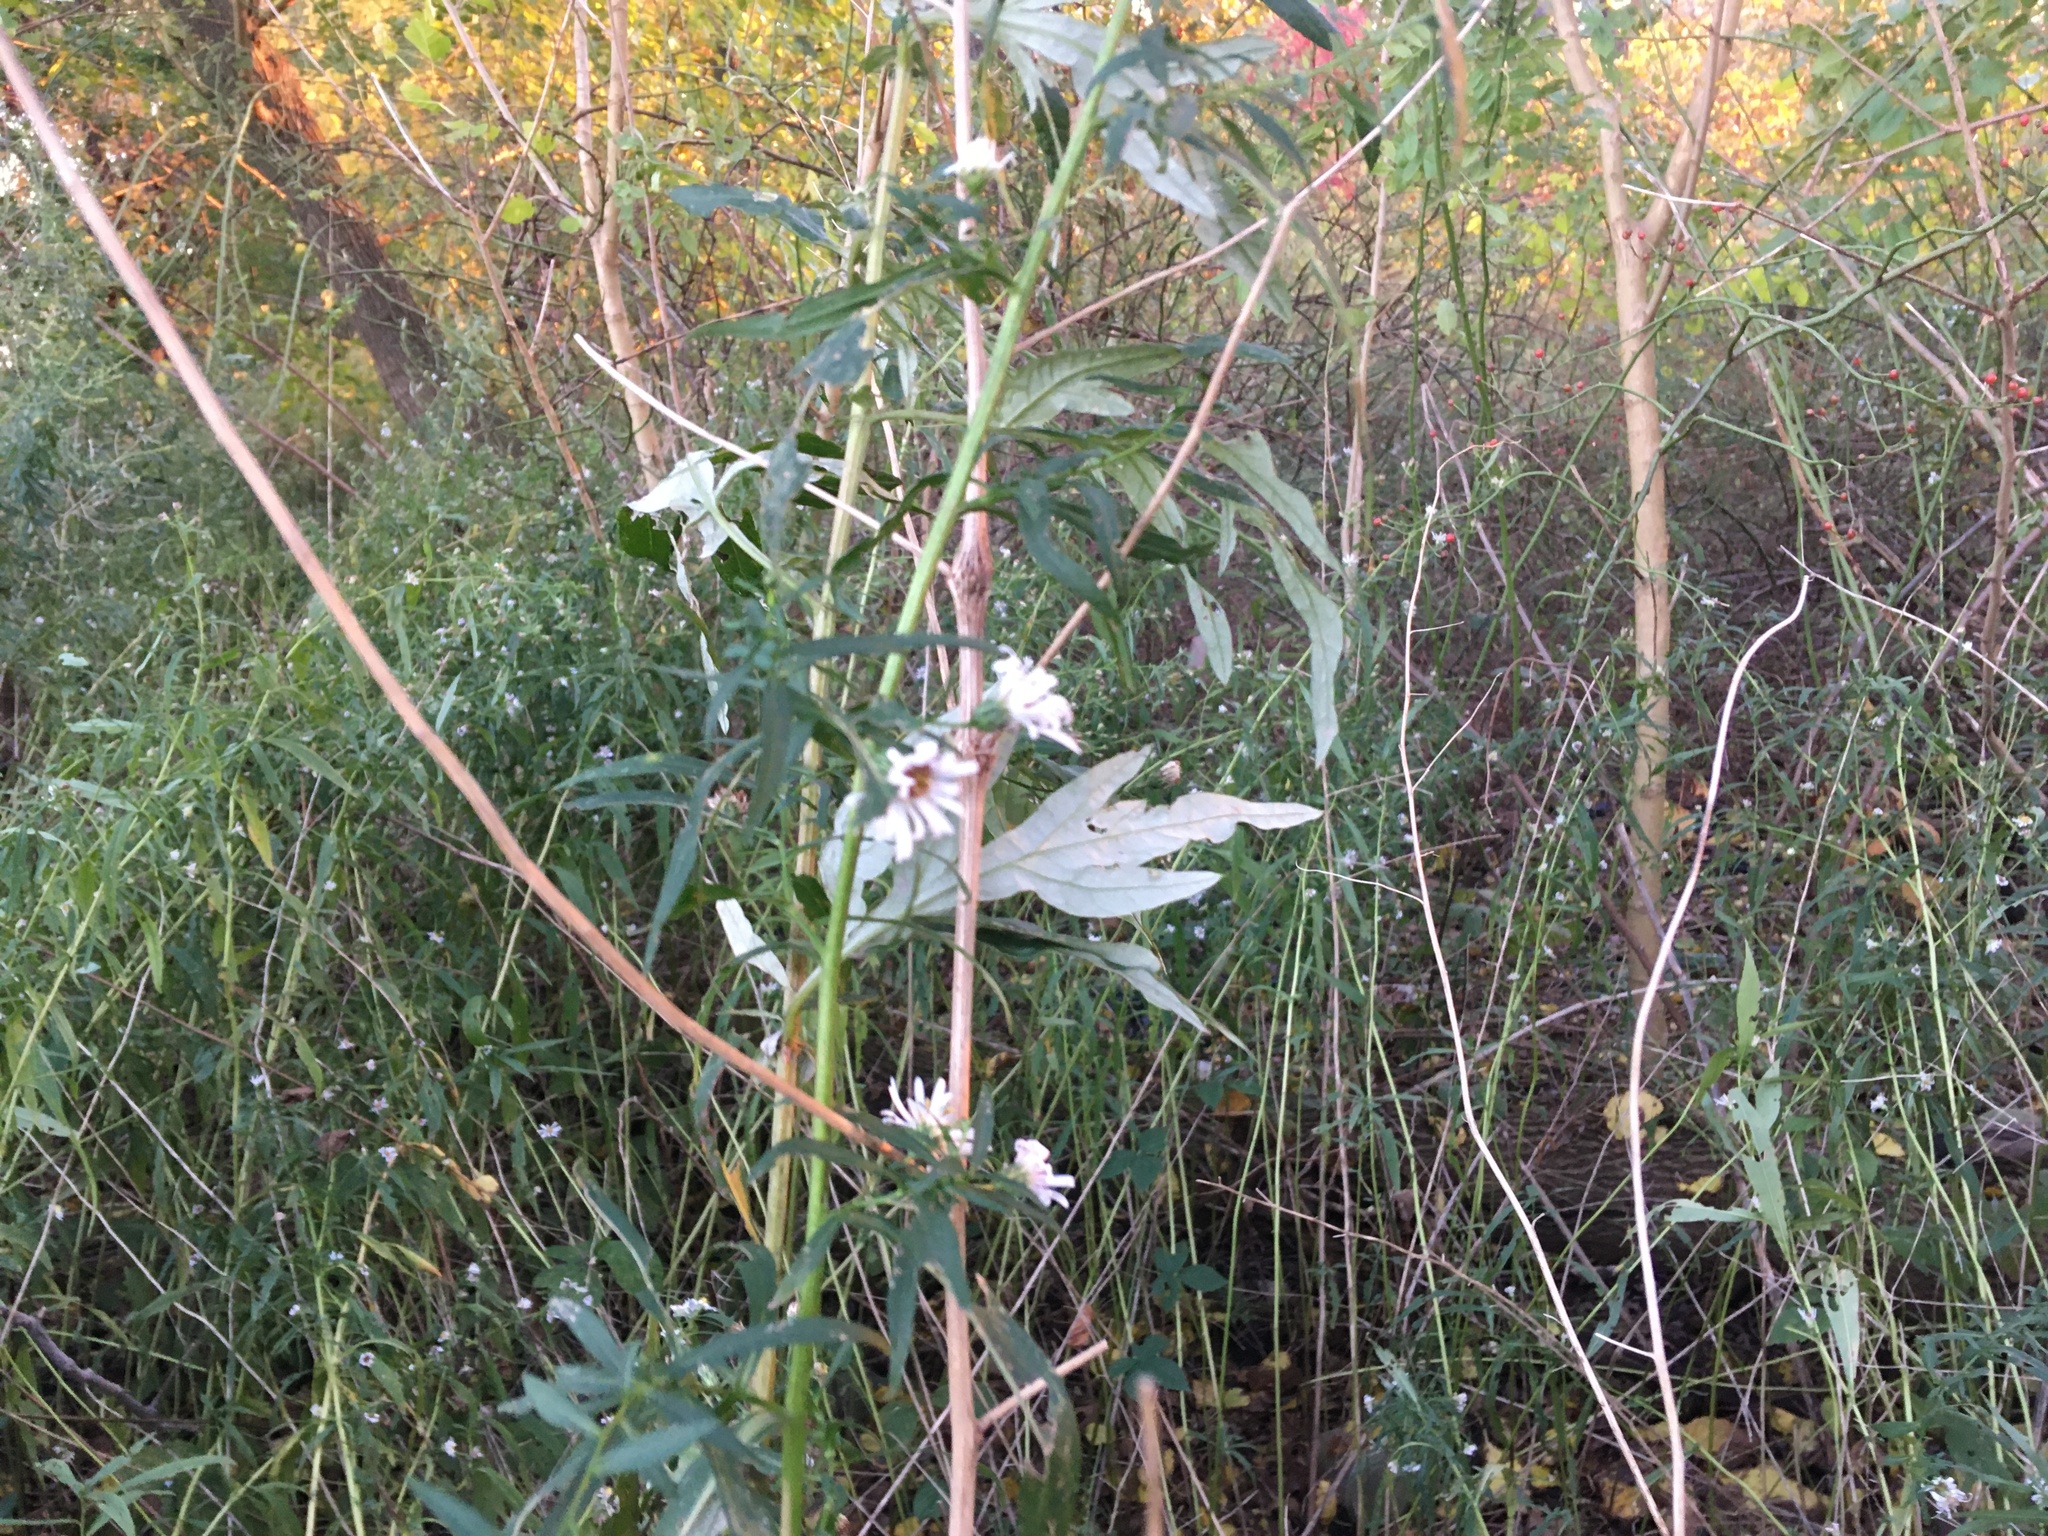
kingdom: Plantae
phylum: Tracheophyta
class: Magnoliopsida
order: Asterales
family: Asteraceae
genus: Artemisia
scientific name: Artemisia vulgaris
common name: Mugwort
